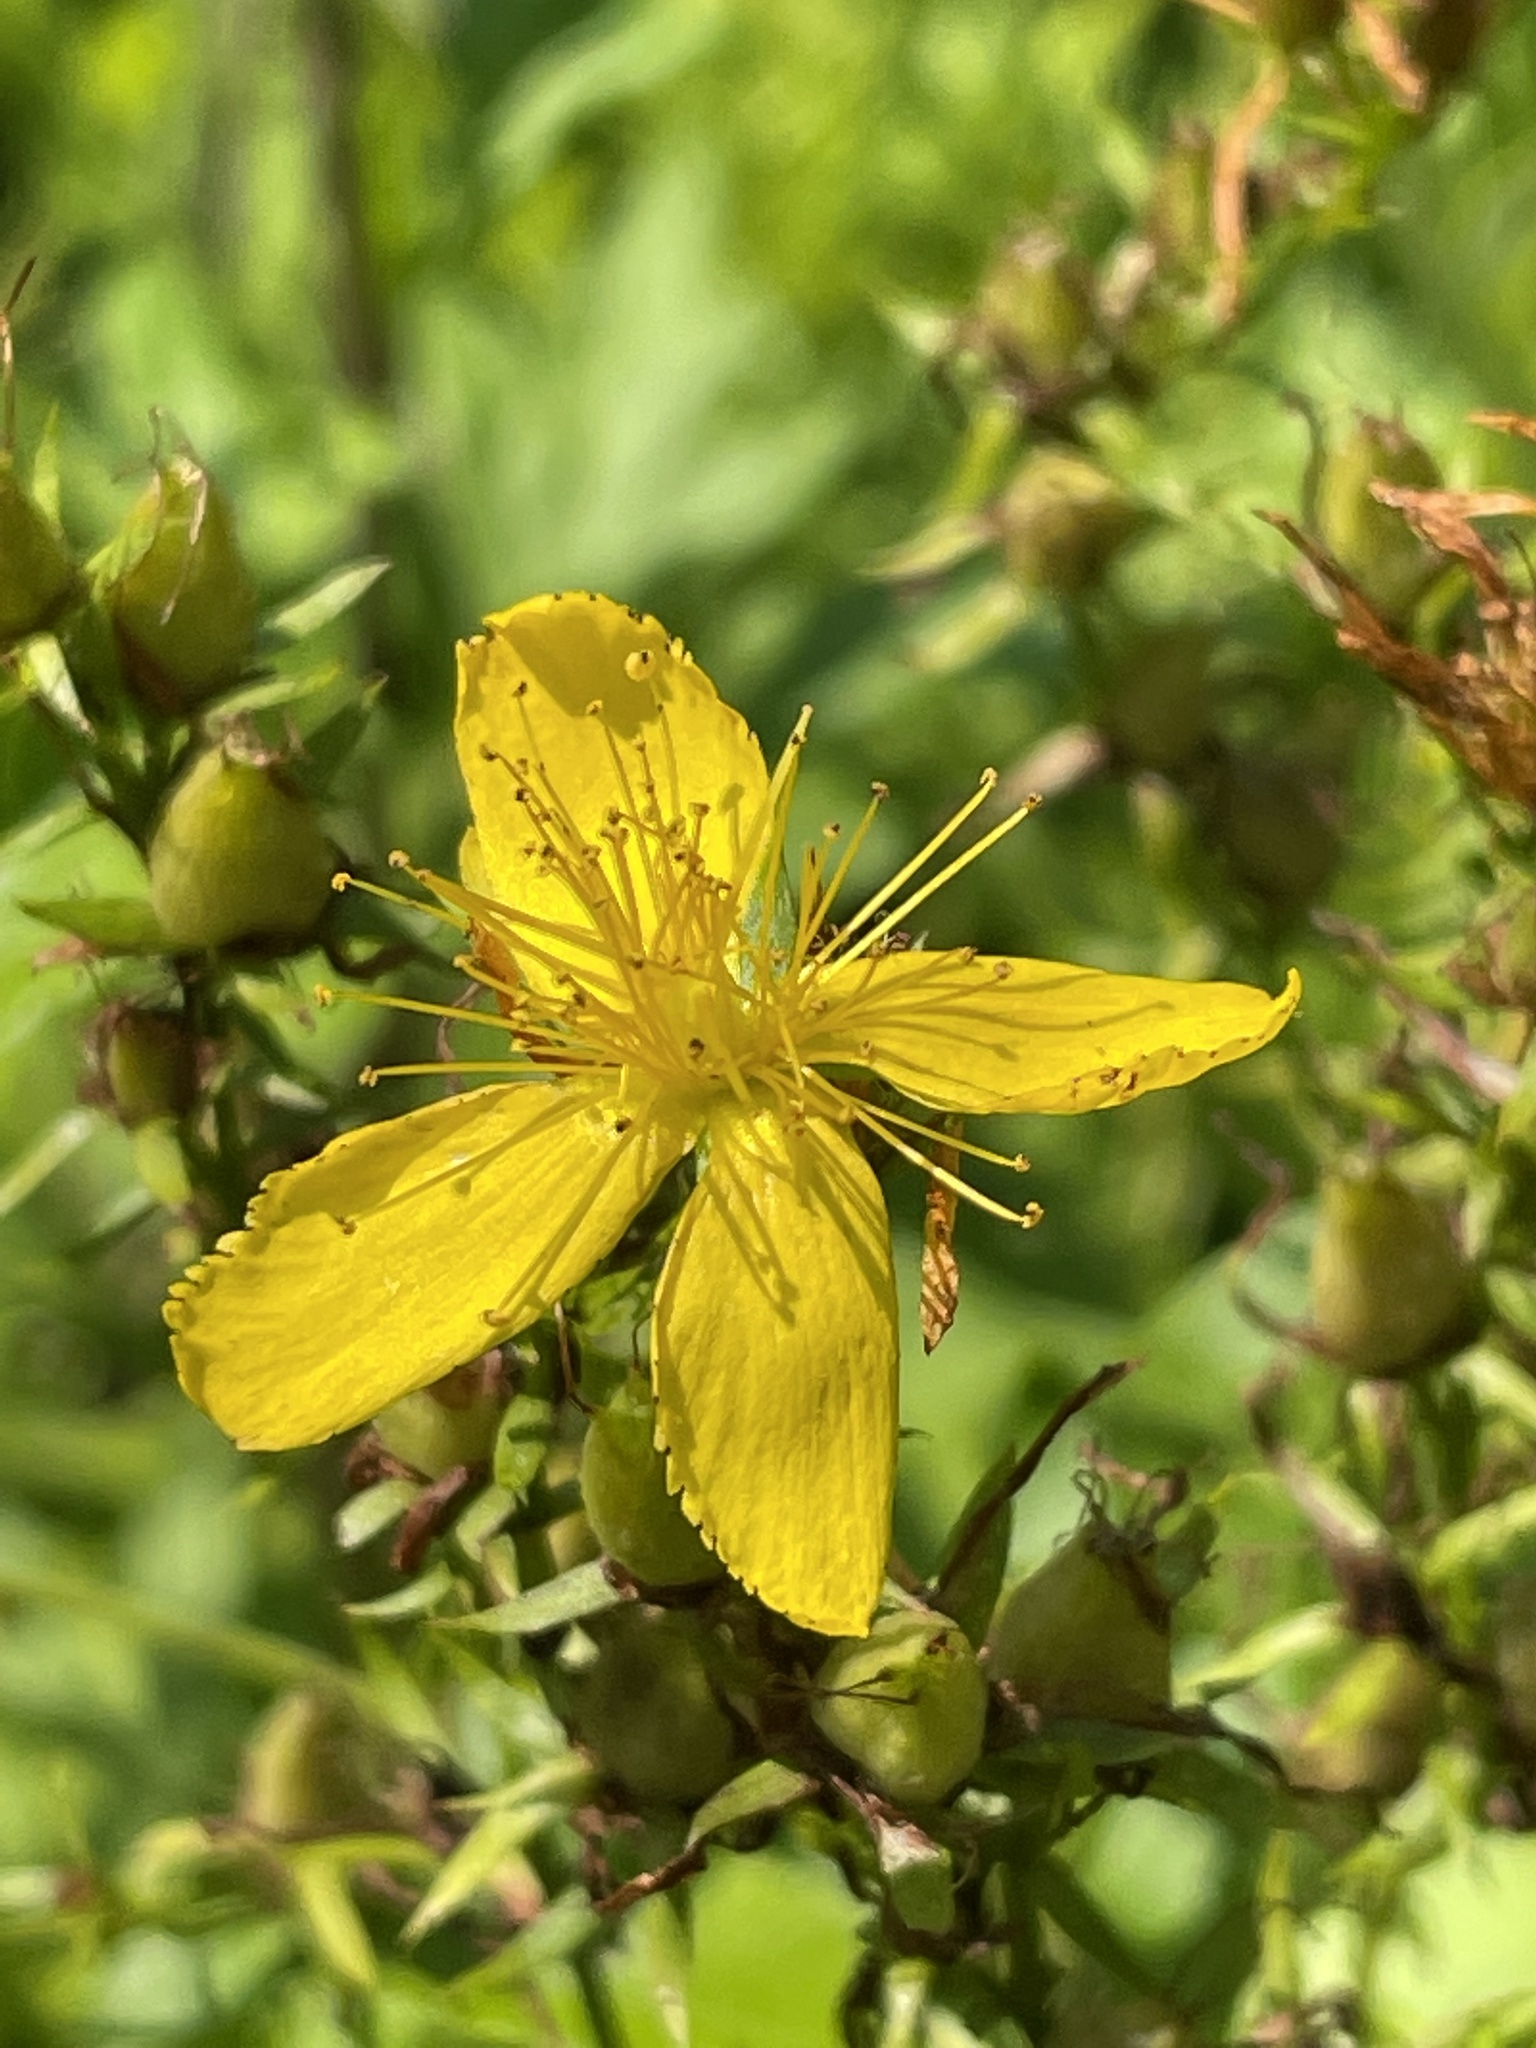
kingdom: Plantae
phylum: Tracheophyta
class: Magnoliopsida
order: Malpighiales
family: Hypericaceae
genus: Hypericum
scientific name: Hypericum perforatum
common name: Common st. johnswort
